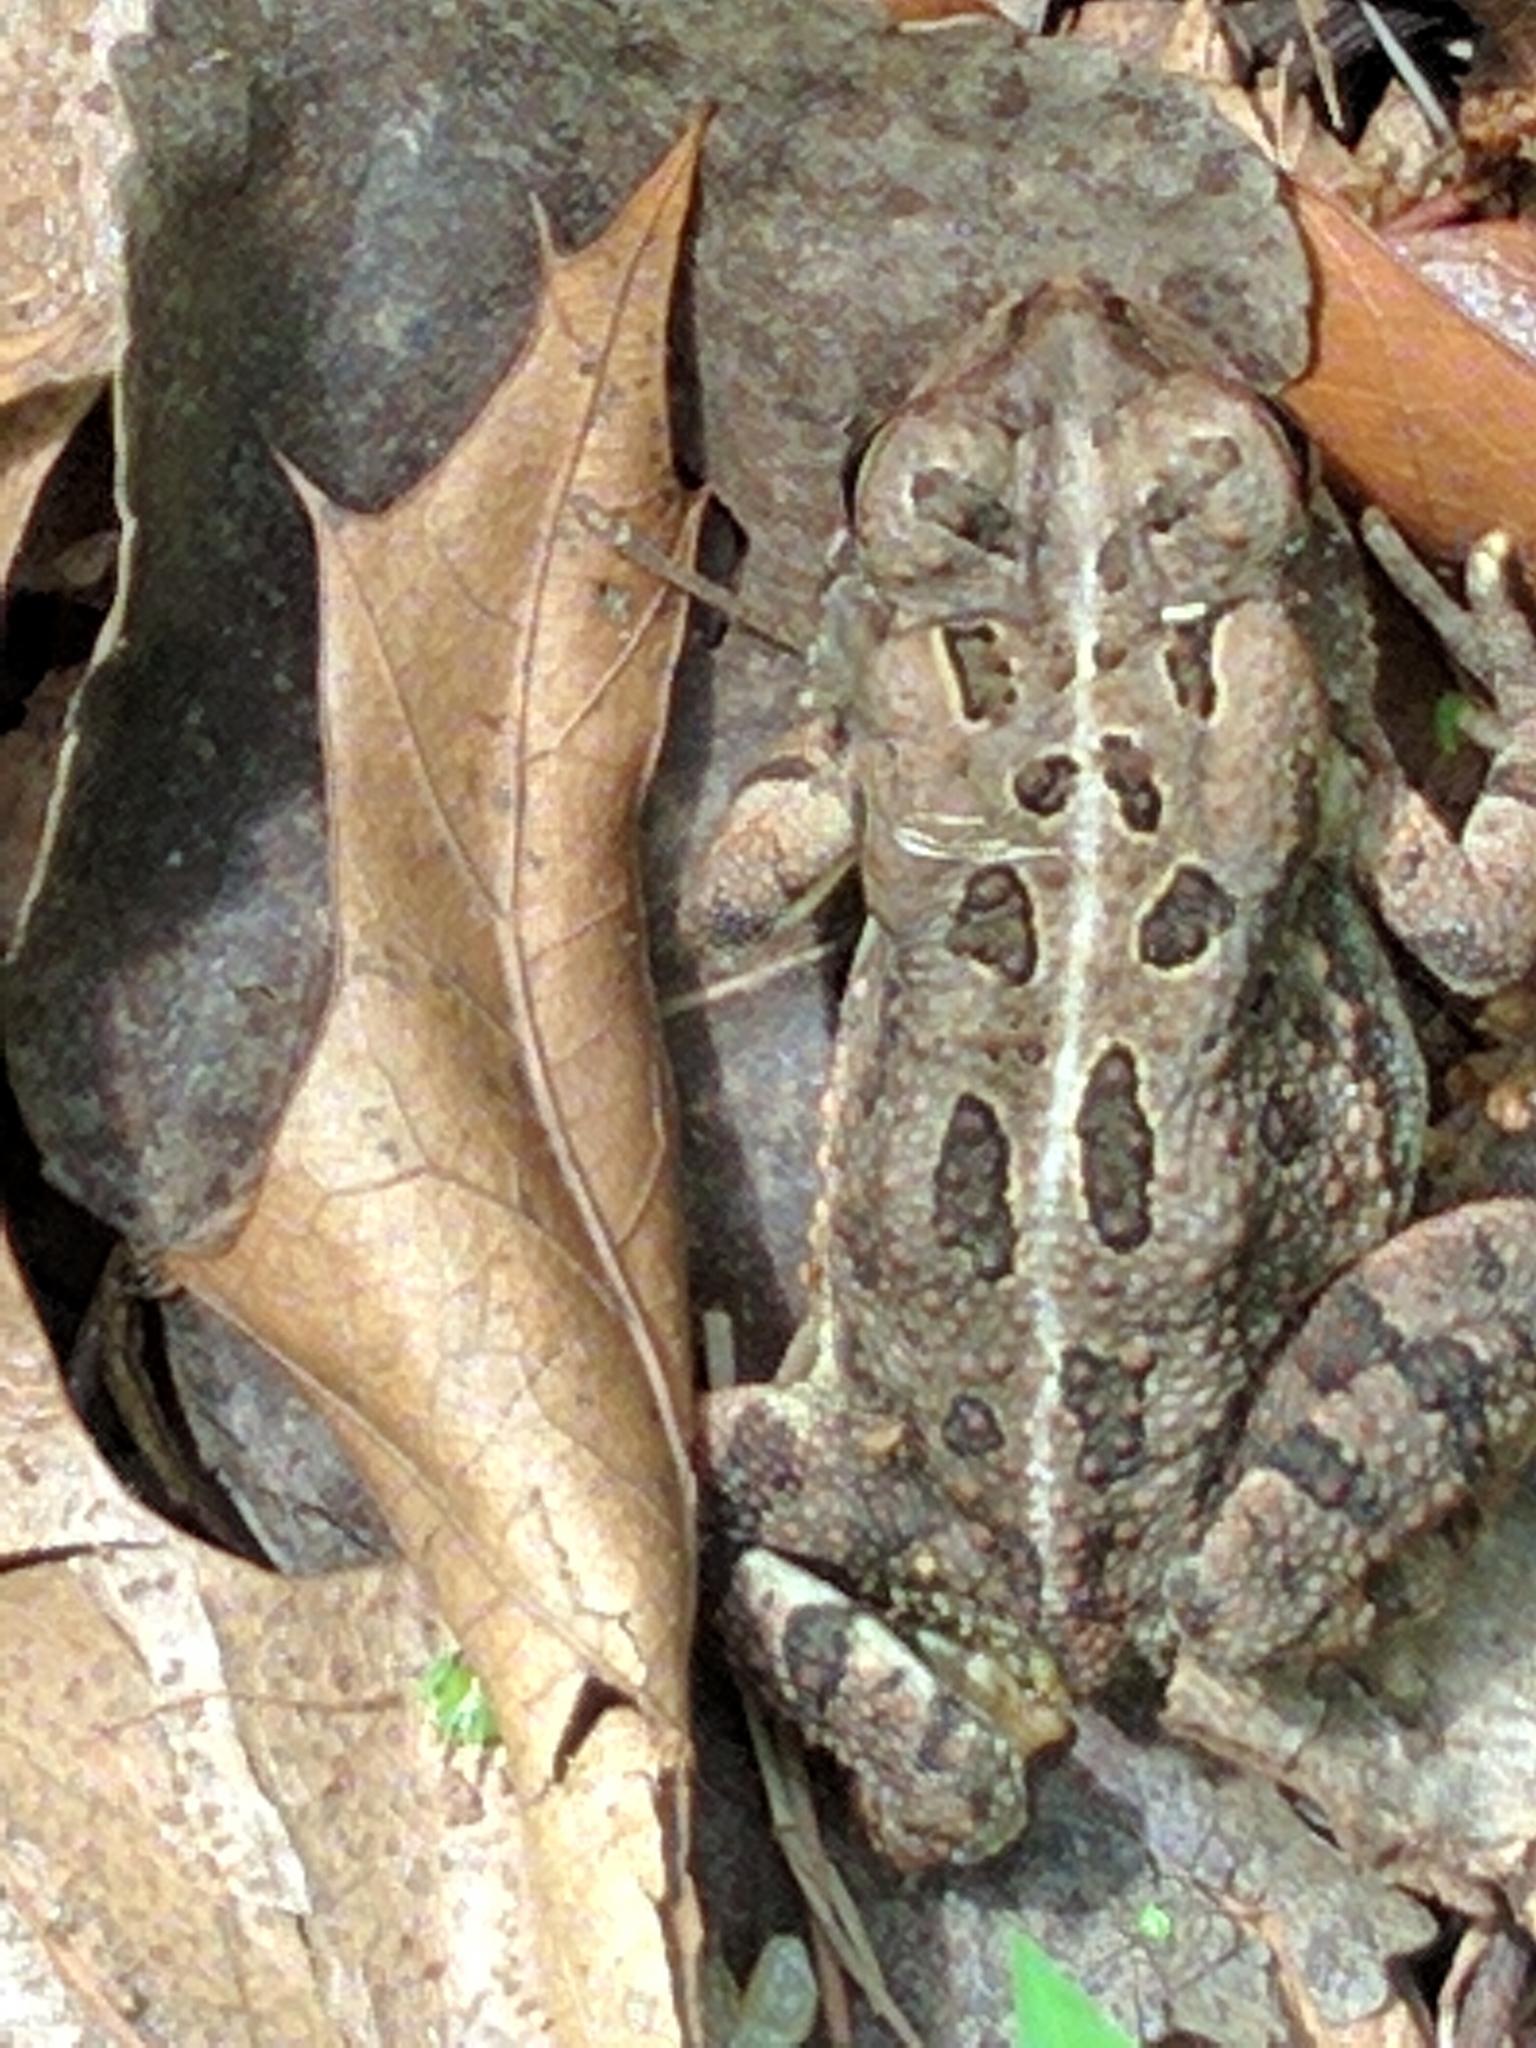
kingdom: Animalia
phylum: Chordata
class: Amphibia
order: Anura
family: Bufonidae
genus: Anaxyrus
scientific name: Anaxyrus fowleri
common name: Fowler's toad
